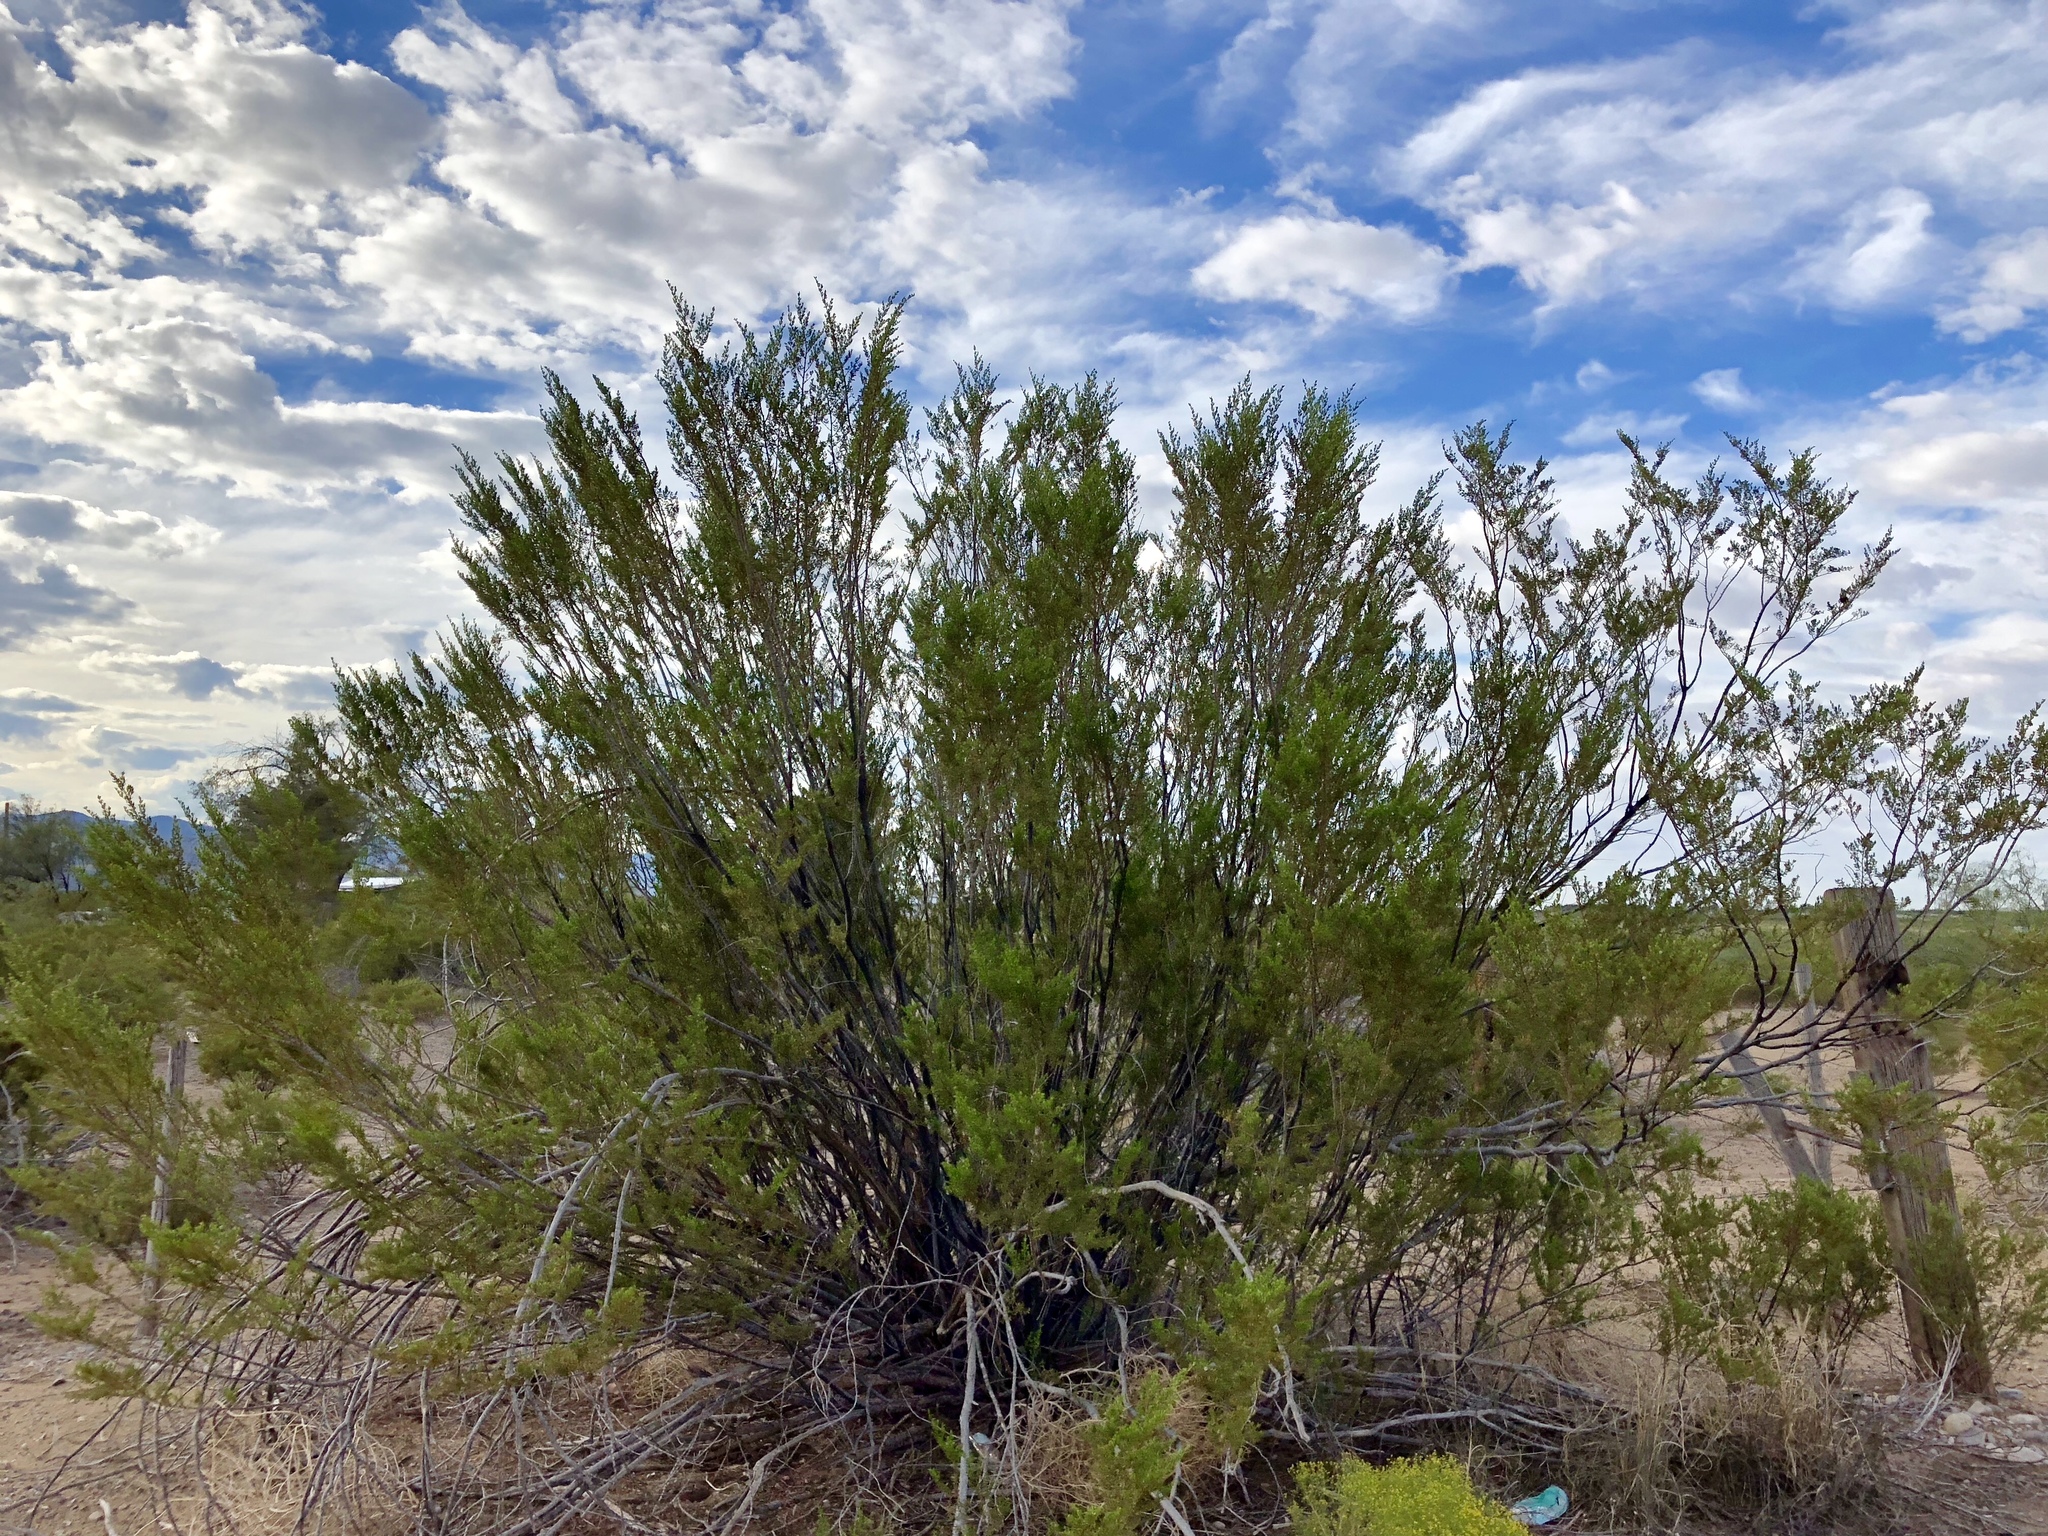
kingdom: Plantae
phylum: Tracheophyta
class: Magnoliopsida
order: Zygophyllales
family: Zygophyllaceae
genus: Larrea
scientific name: Larrea tridentata
